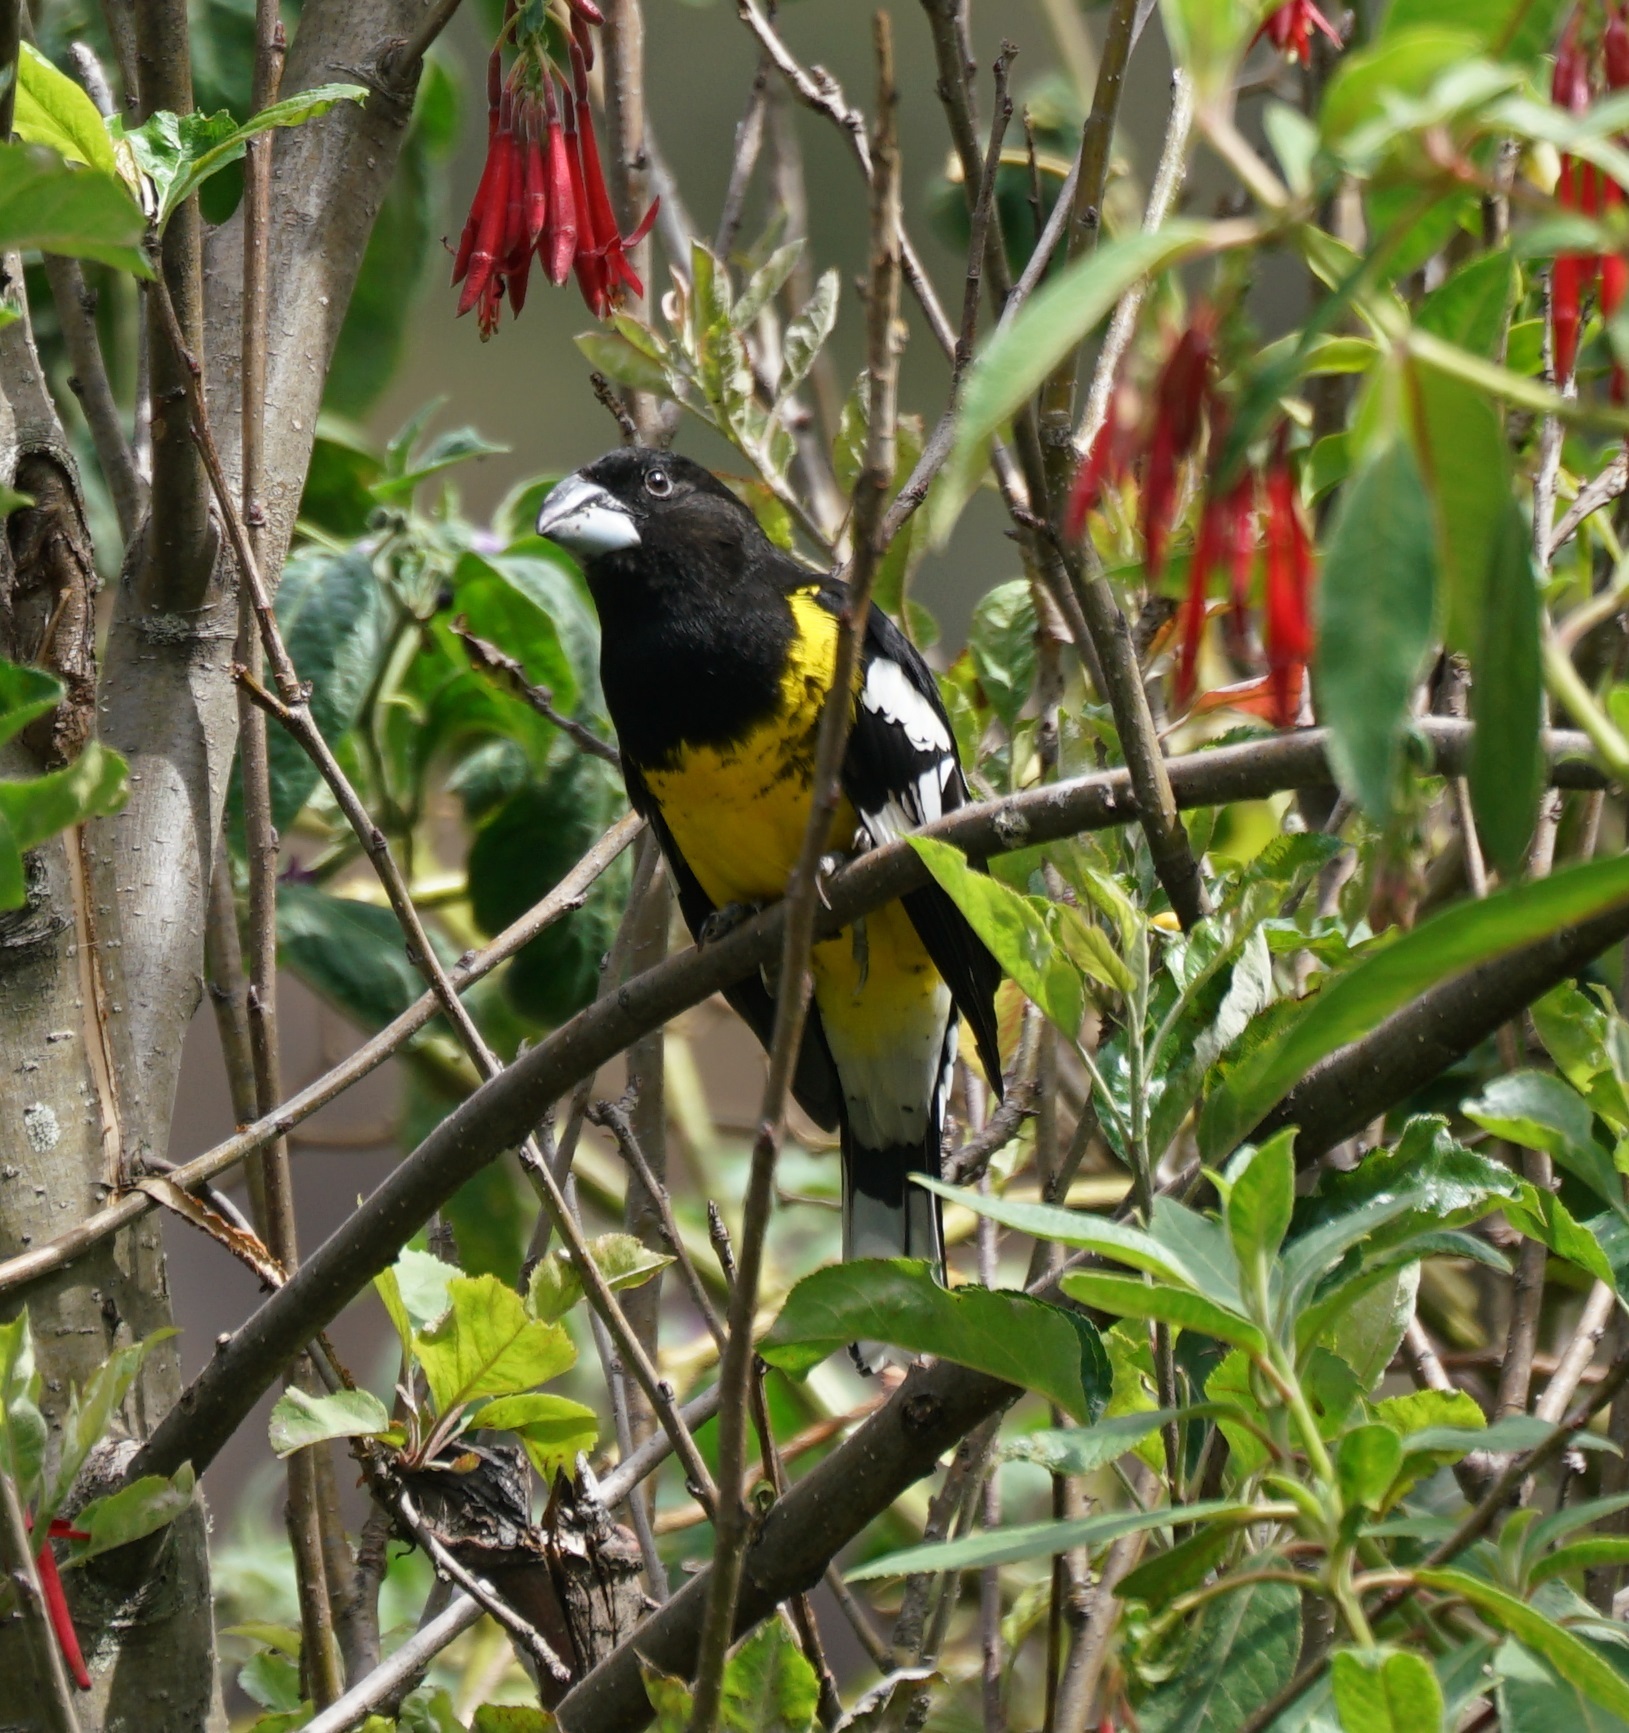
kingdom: Animalia
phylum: Chordata
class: Aves
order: Passeriformes
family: Cardinalidae
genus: Pheucticus
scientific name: Pheucticus aureoventris
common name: Black-backed grosbeak
